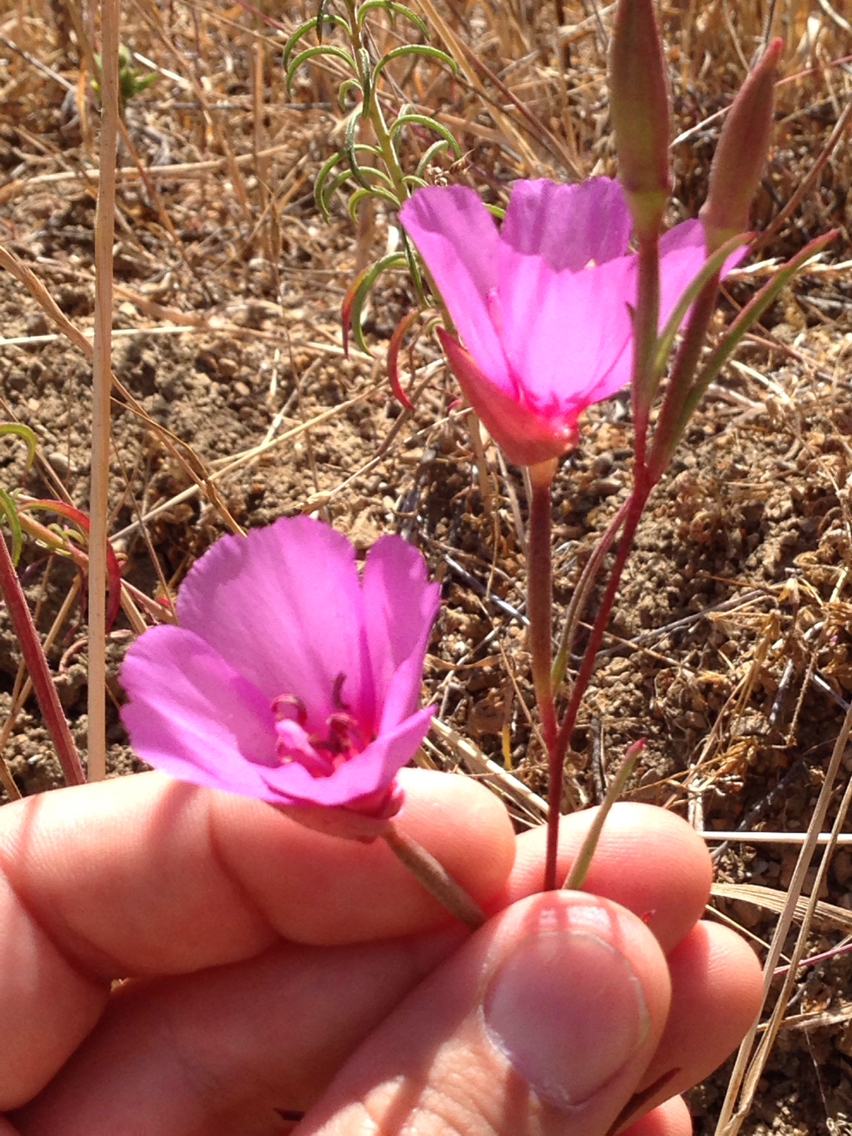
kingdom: Plantae
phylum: Tracheophyta
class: Magnoliopsida
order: Myrtales
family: Onagraceae
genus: Clarkia
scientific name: Clarkia rubicunda
